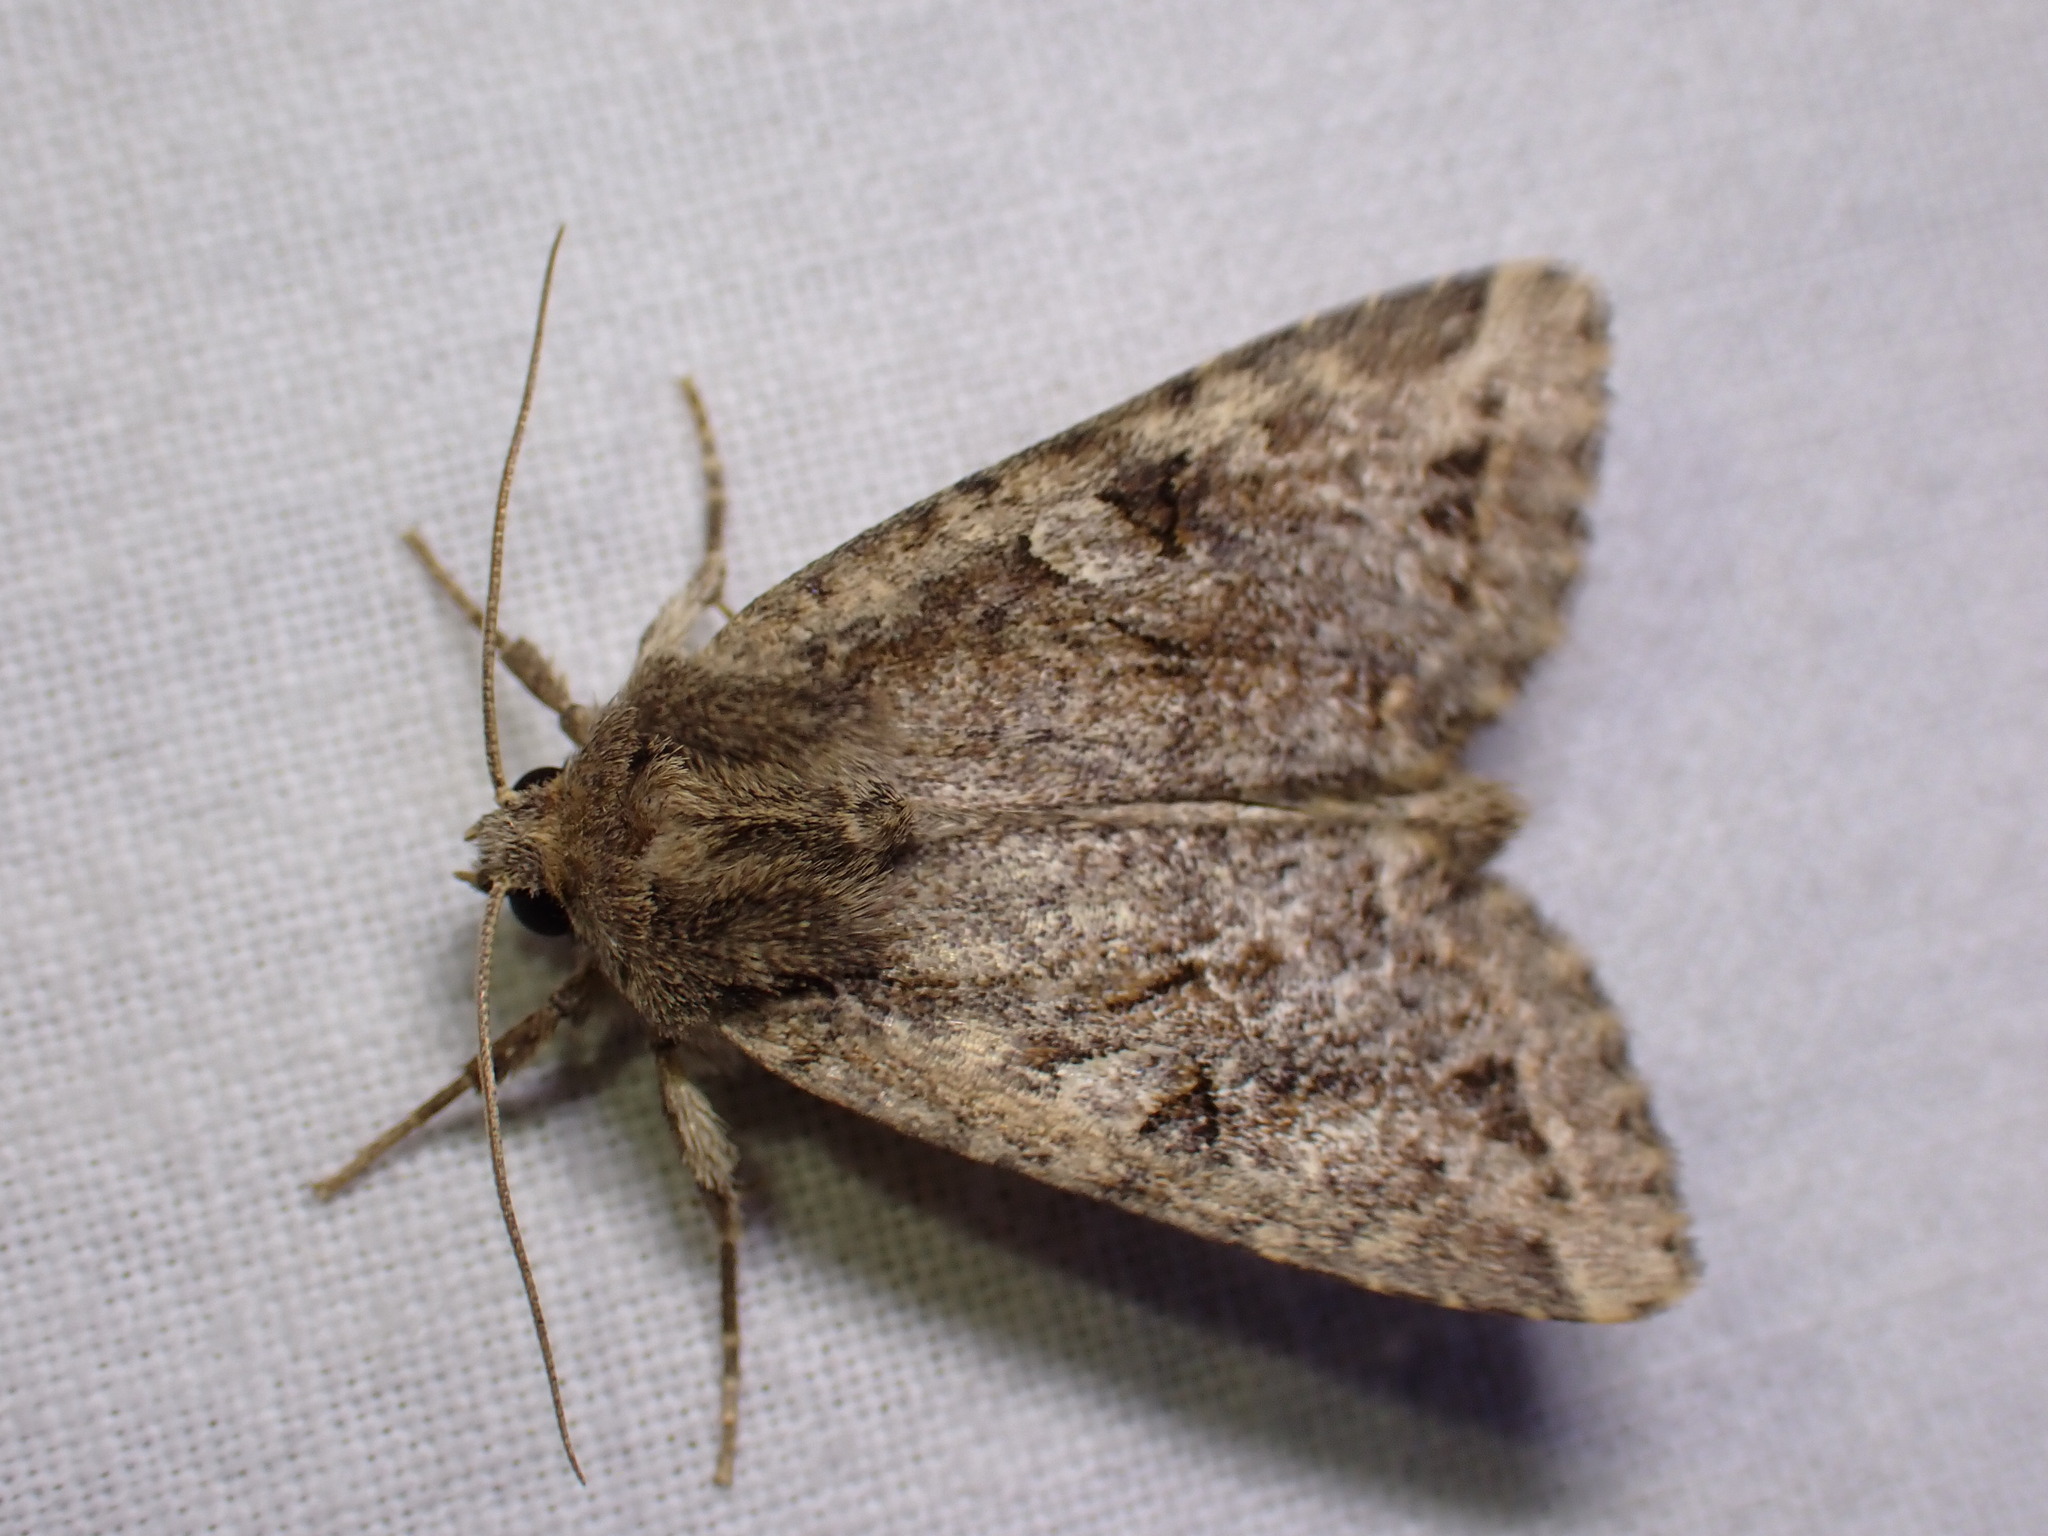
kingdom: Animalia
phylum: Arthropoda
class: Insecta
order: Lepidoptera
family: Noctuidae
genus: Apterogenum
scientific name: Apterogenum ypsillon
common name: Dingy shears
